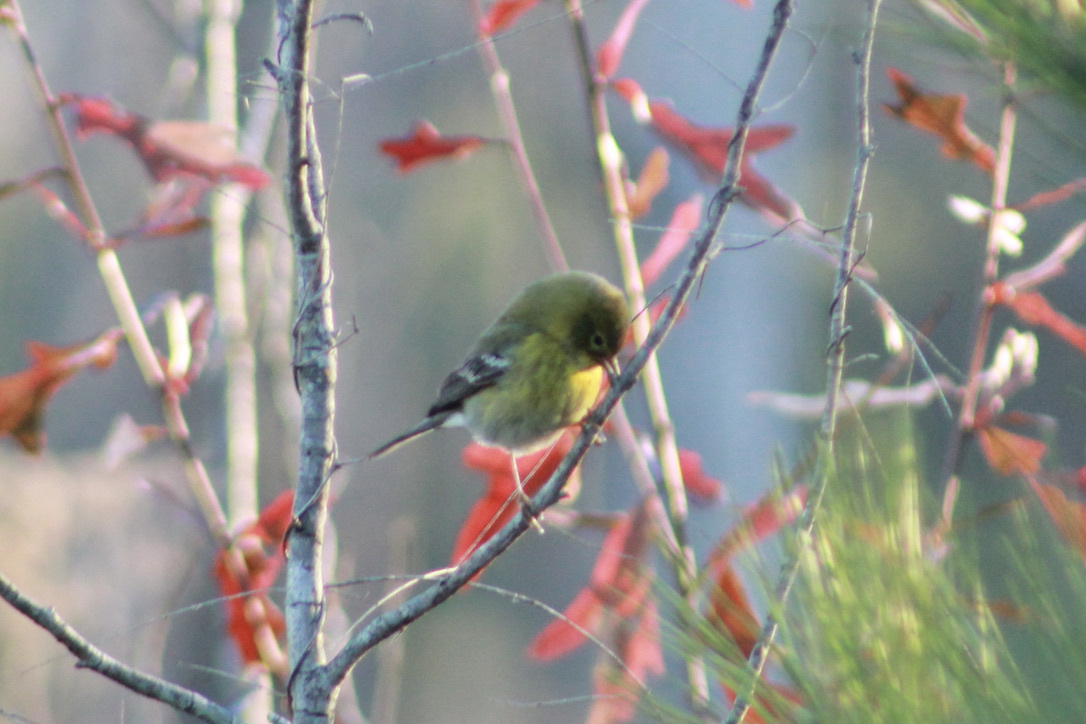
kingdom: Animalia
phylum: Chordata
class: Aves
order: Passeriformes
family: Parulidae
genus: Setophaga
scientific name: Setophaga pinus
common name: Pine warbler
